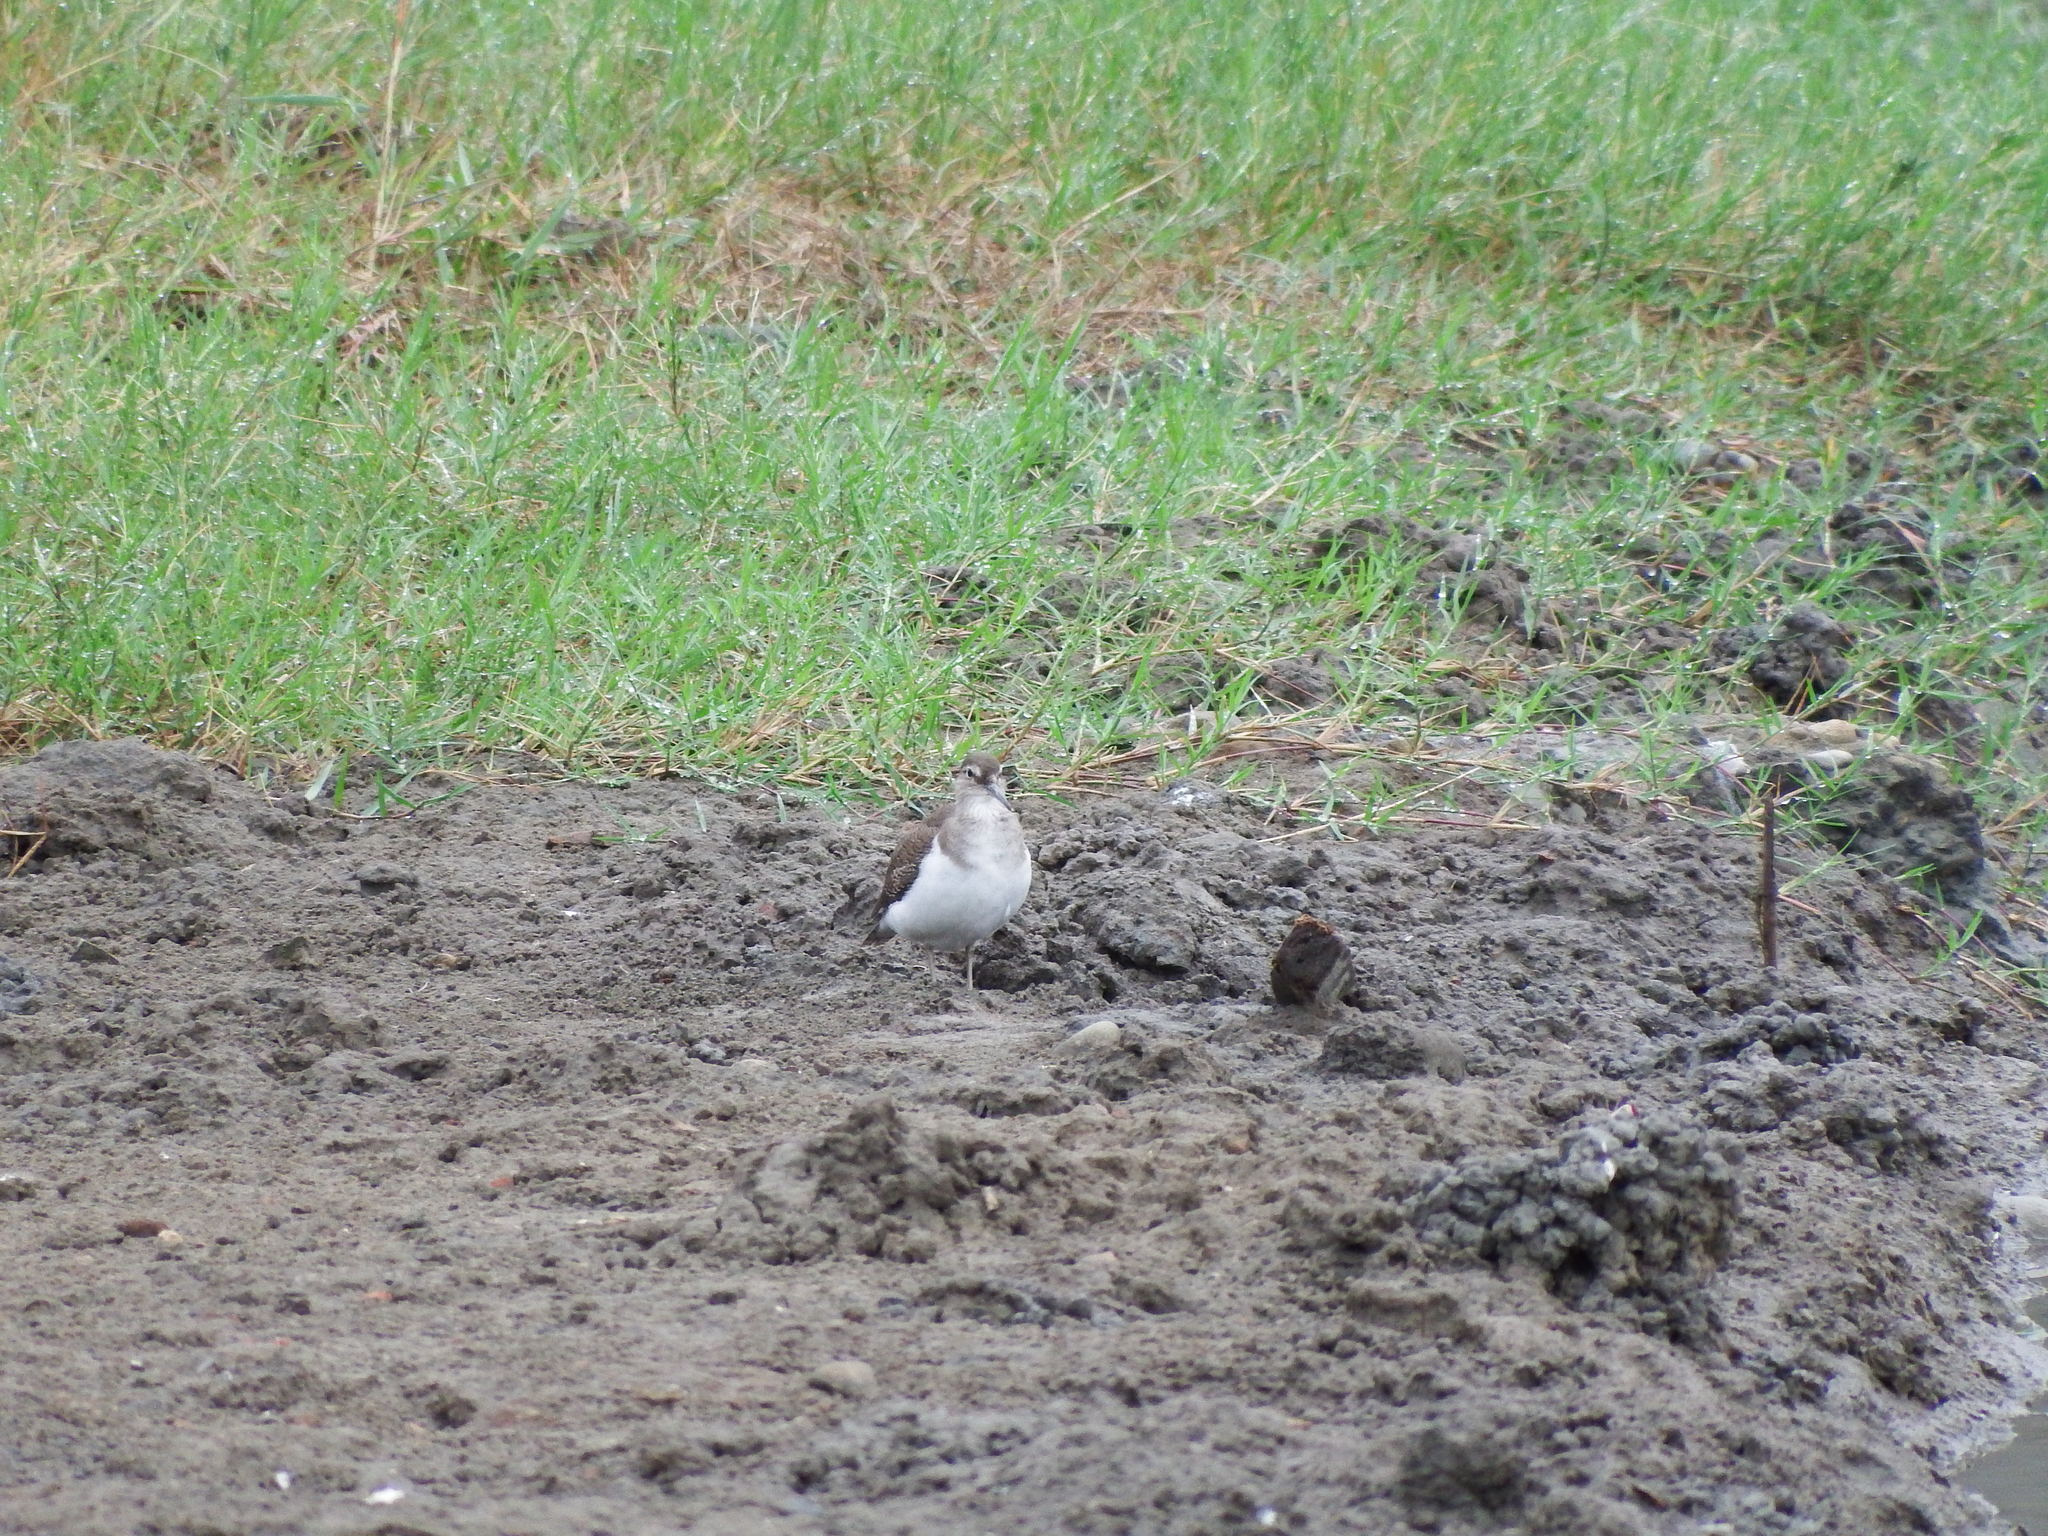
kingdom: Animalia
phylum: Chordata
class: Aves
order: Charadriiformes
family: Scolopacidae
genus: Actitis
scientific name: Actitis hypoleucos
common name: Common sandpiper
